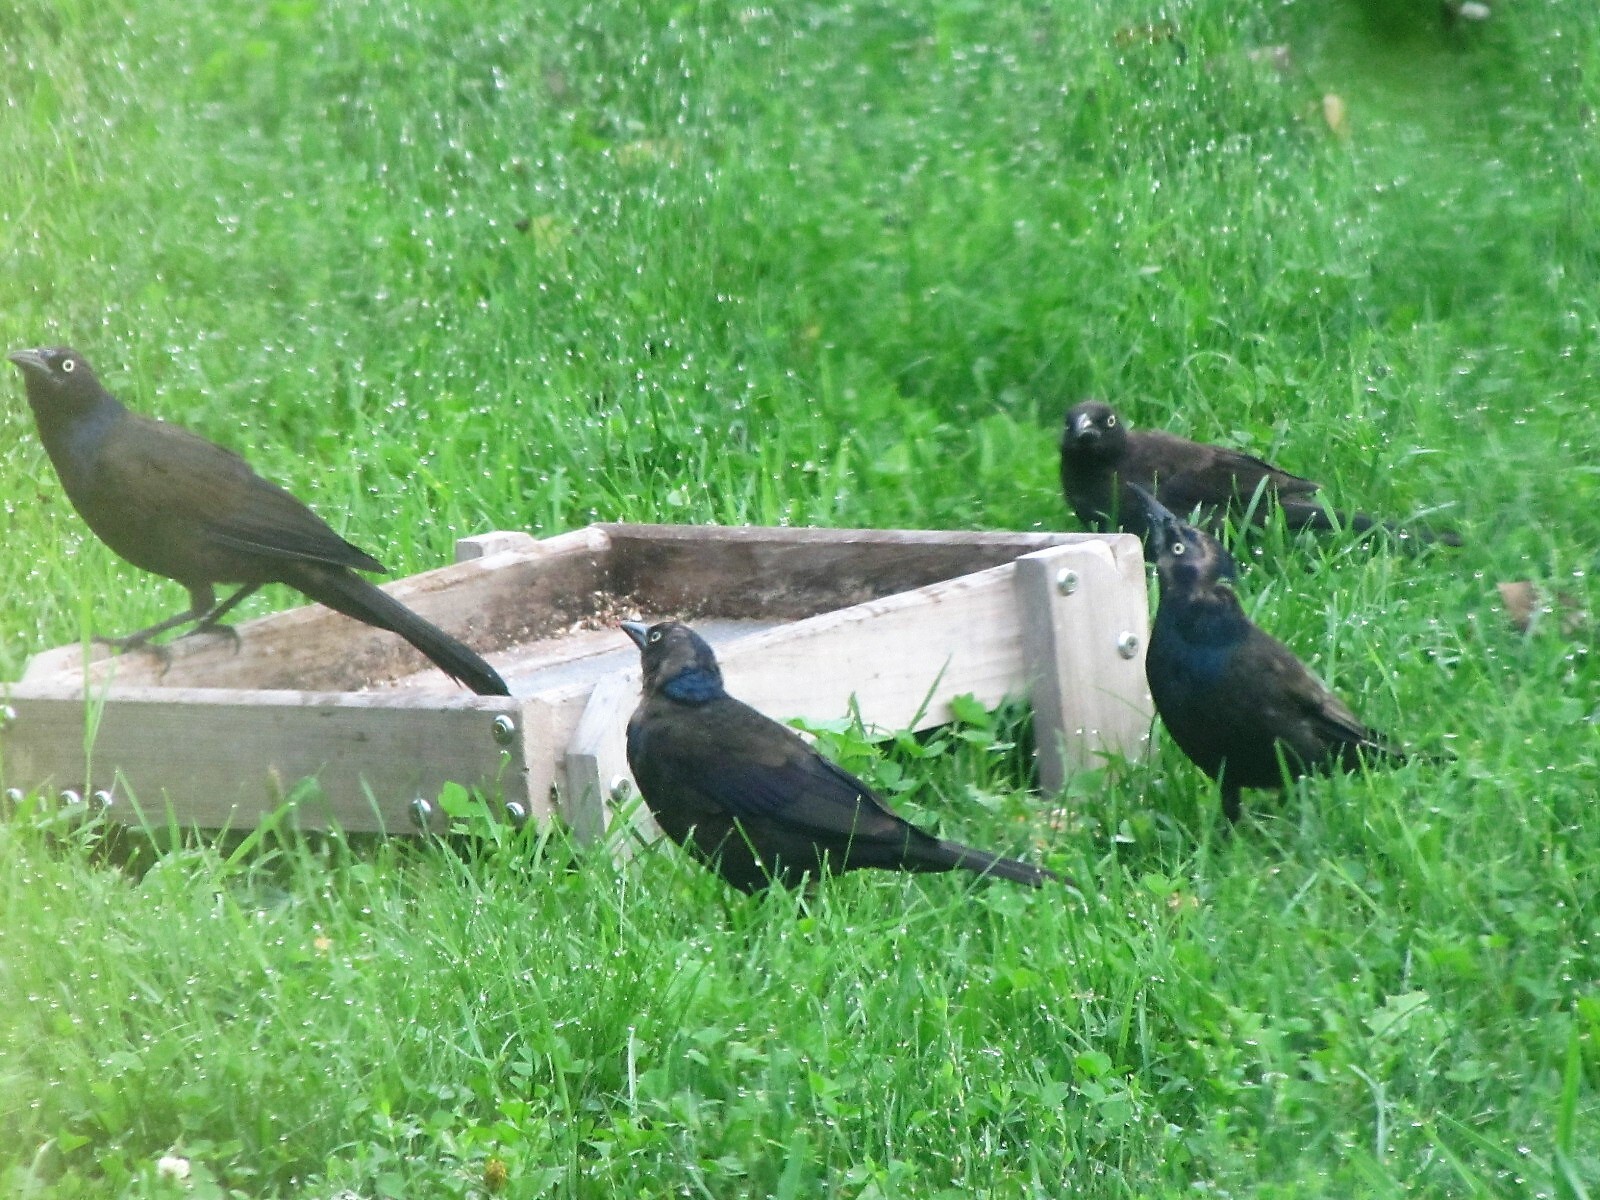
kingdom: Animalia
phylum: Chordata
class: Aves
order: Passeriformes
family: Icteridae
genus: Quiscalus
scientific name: Quiscalus quiscula
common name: Common grackle
